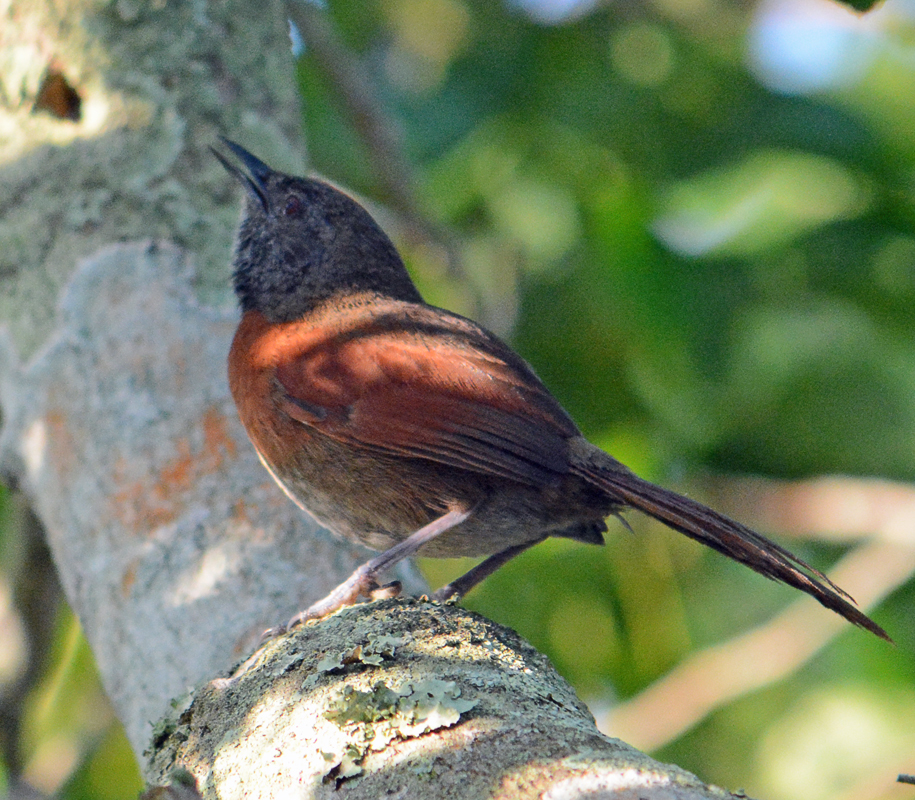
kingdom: Animalia
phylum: Chordata
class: Aves
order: Passeriformes
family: Furnariidae
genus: Synallaxis
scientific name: Synallaxis erythrothorax
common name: Rufous-breasted spinetail
